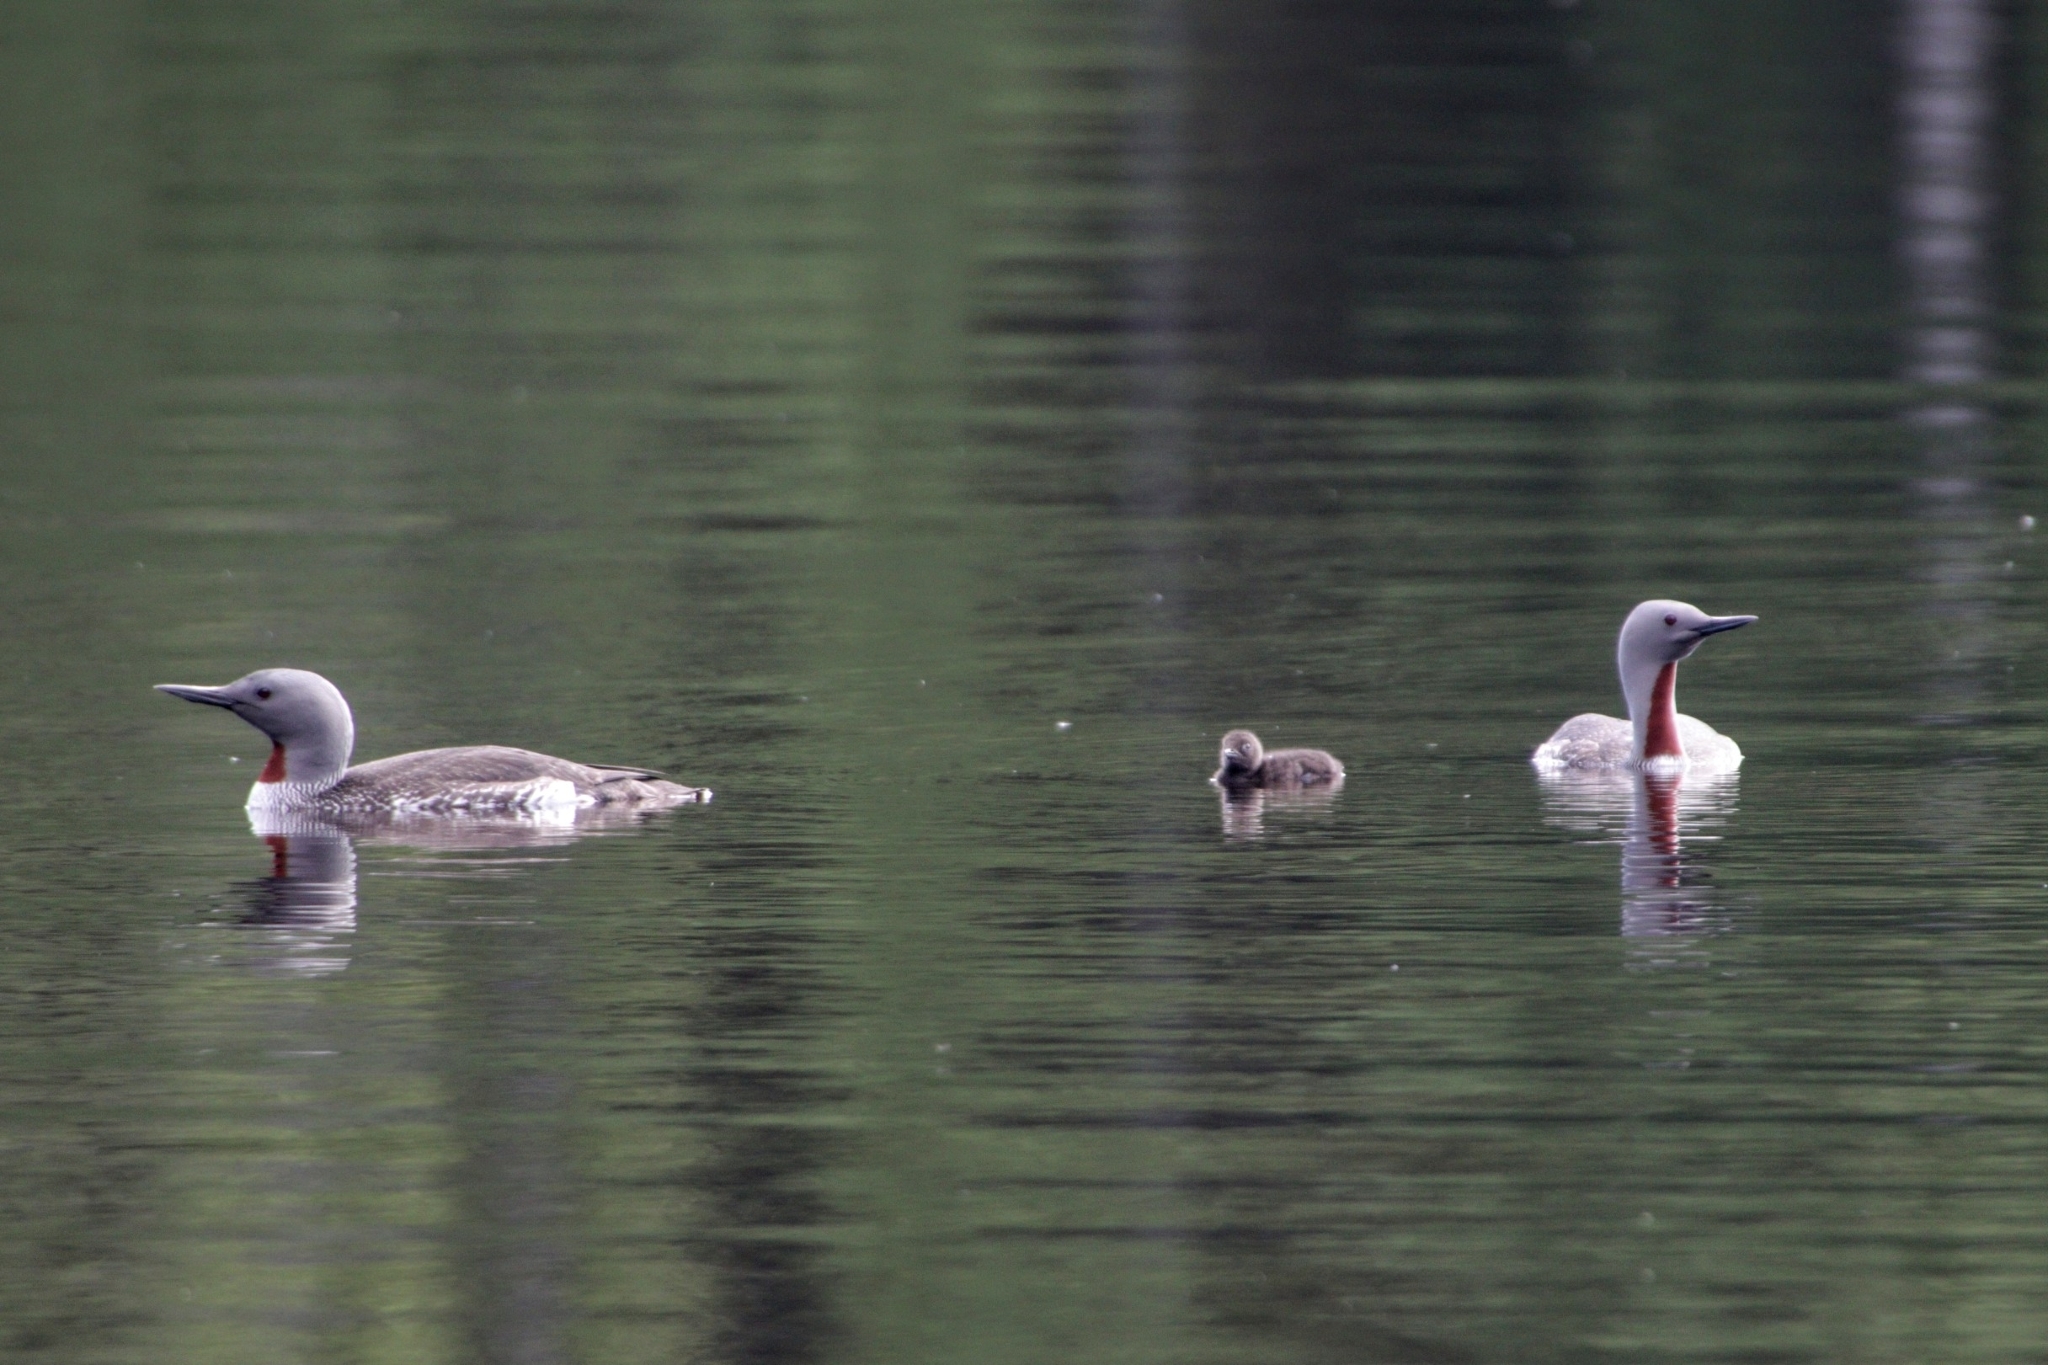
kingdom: Animalia
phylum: Chordata
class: Aves
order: Gaviiformes
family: Gaviidae
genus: Gavia
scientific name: Gavia stellata
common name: Red-throated loon
